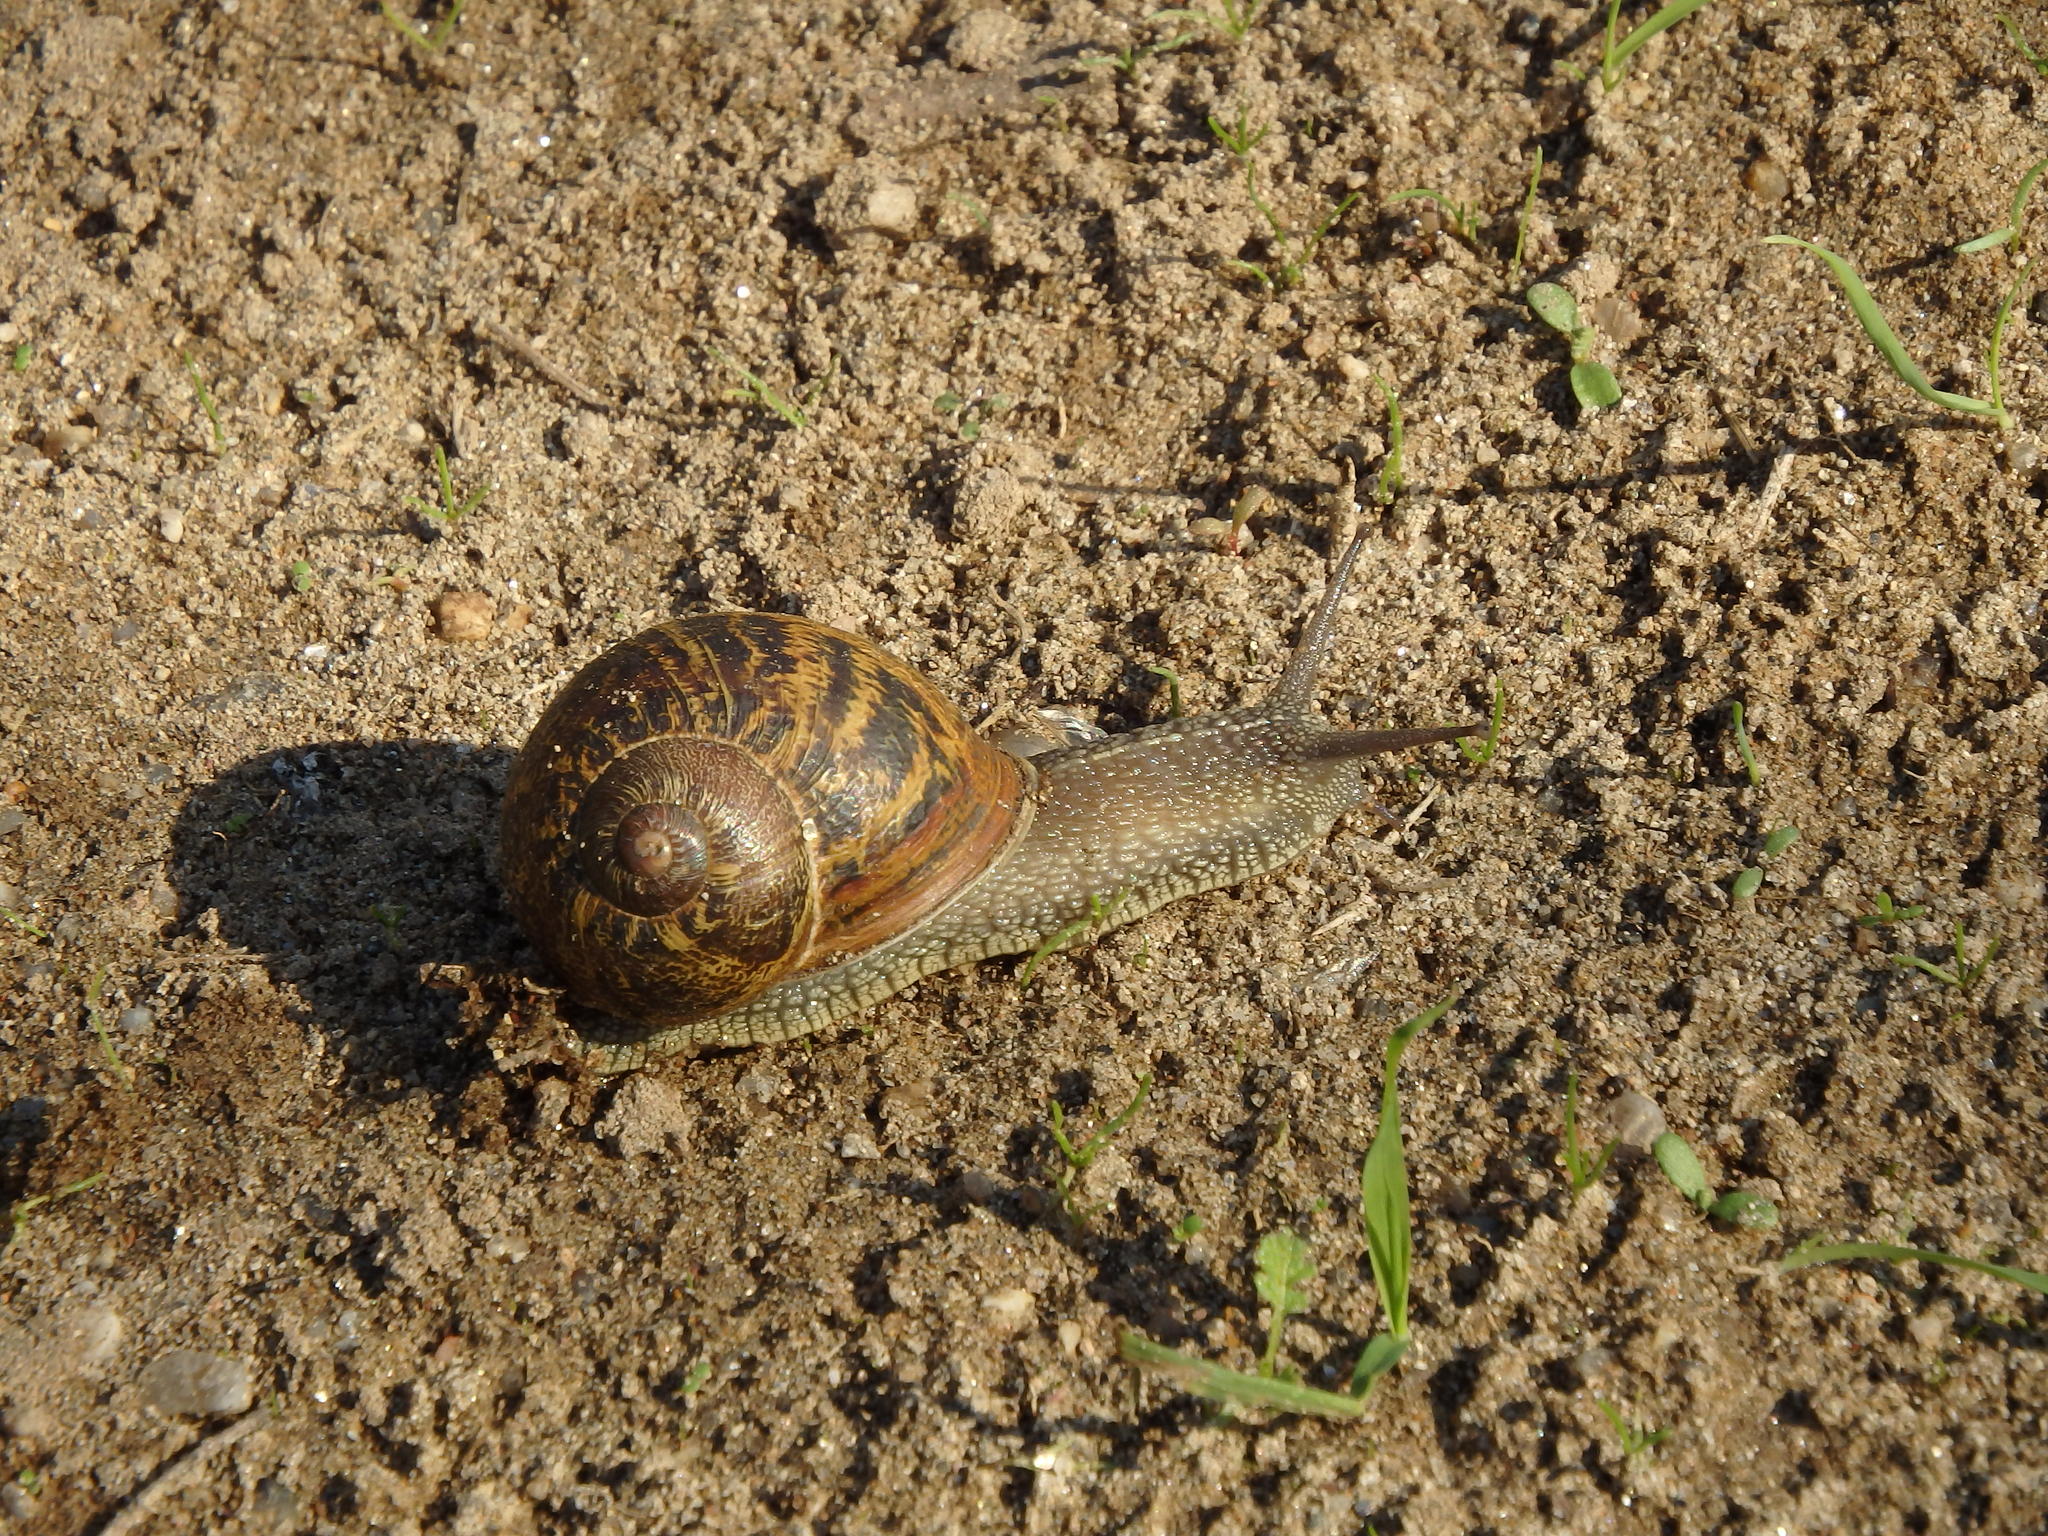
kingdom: Animalia
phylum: Mollusca
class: Gastropoda
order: Stylommatophora
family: Helicidae
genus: Cornu
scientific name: Cornu aspersum
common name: Brown garden snail
